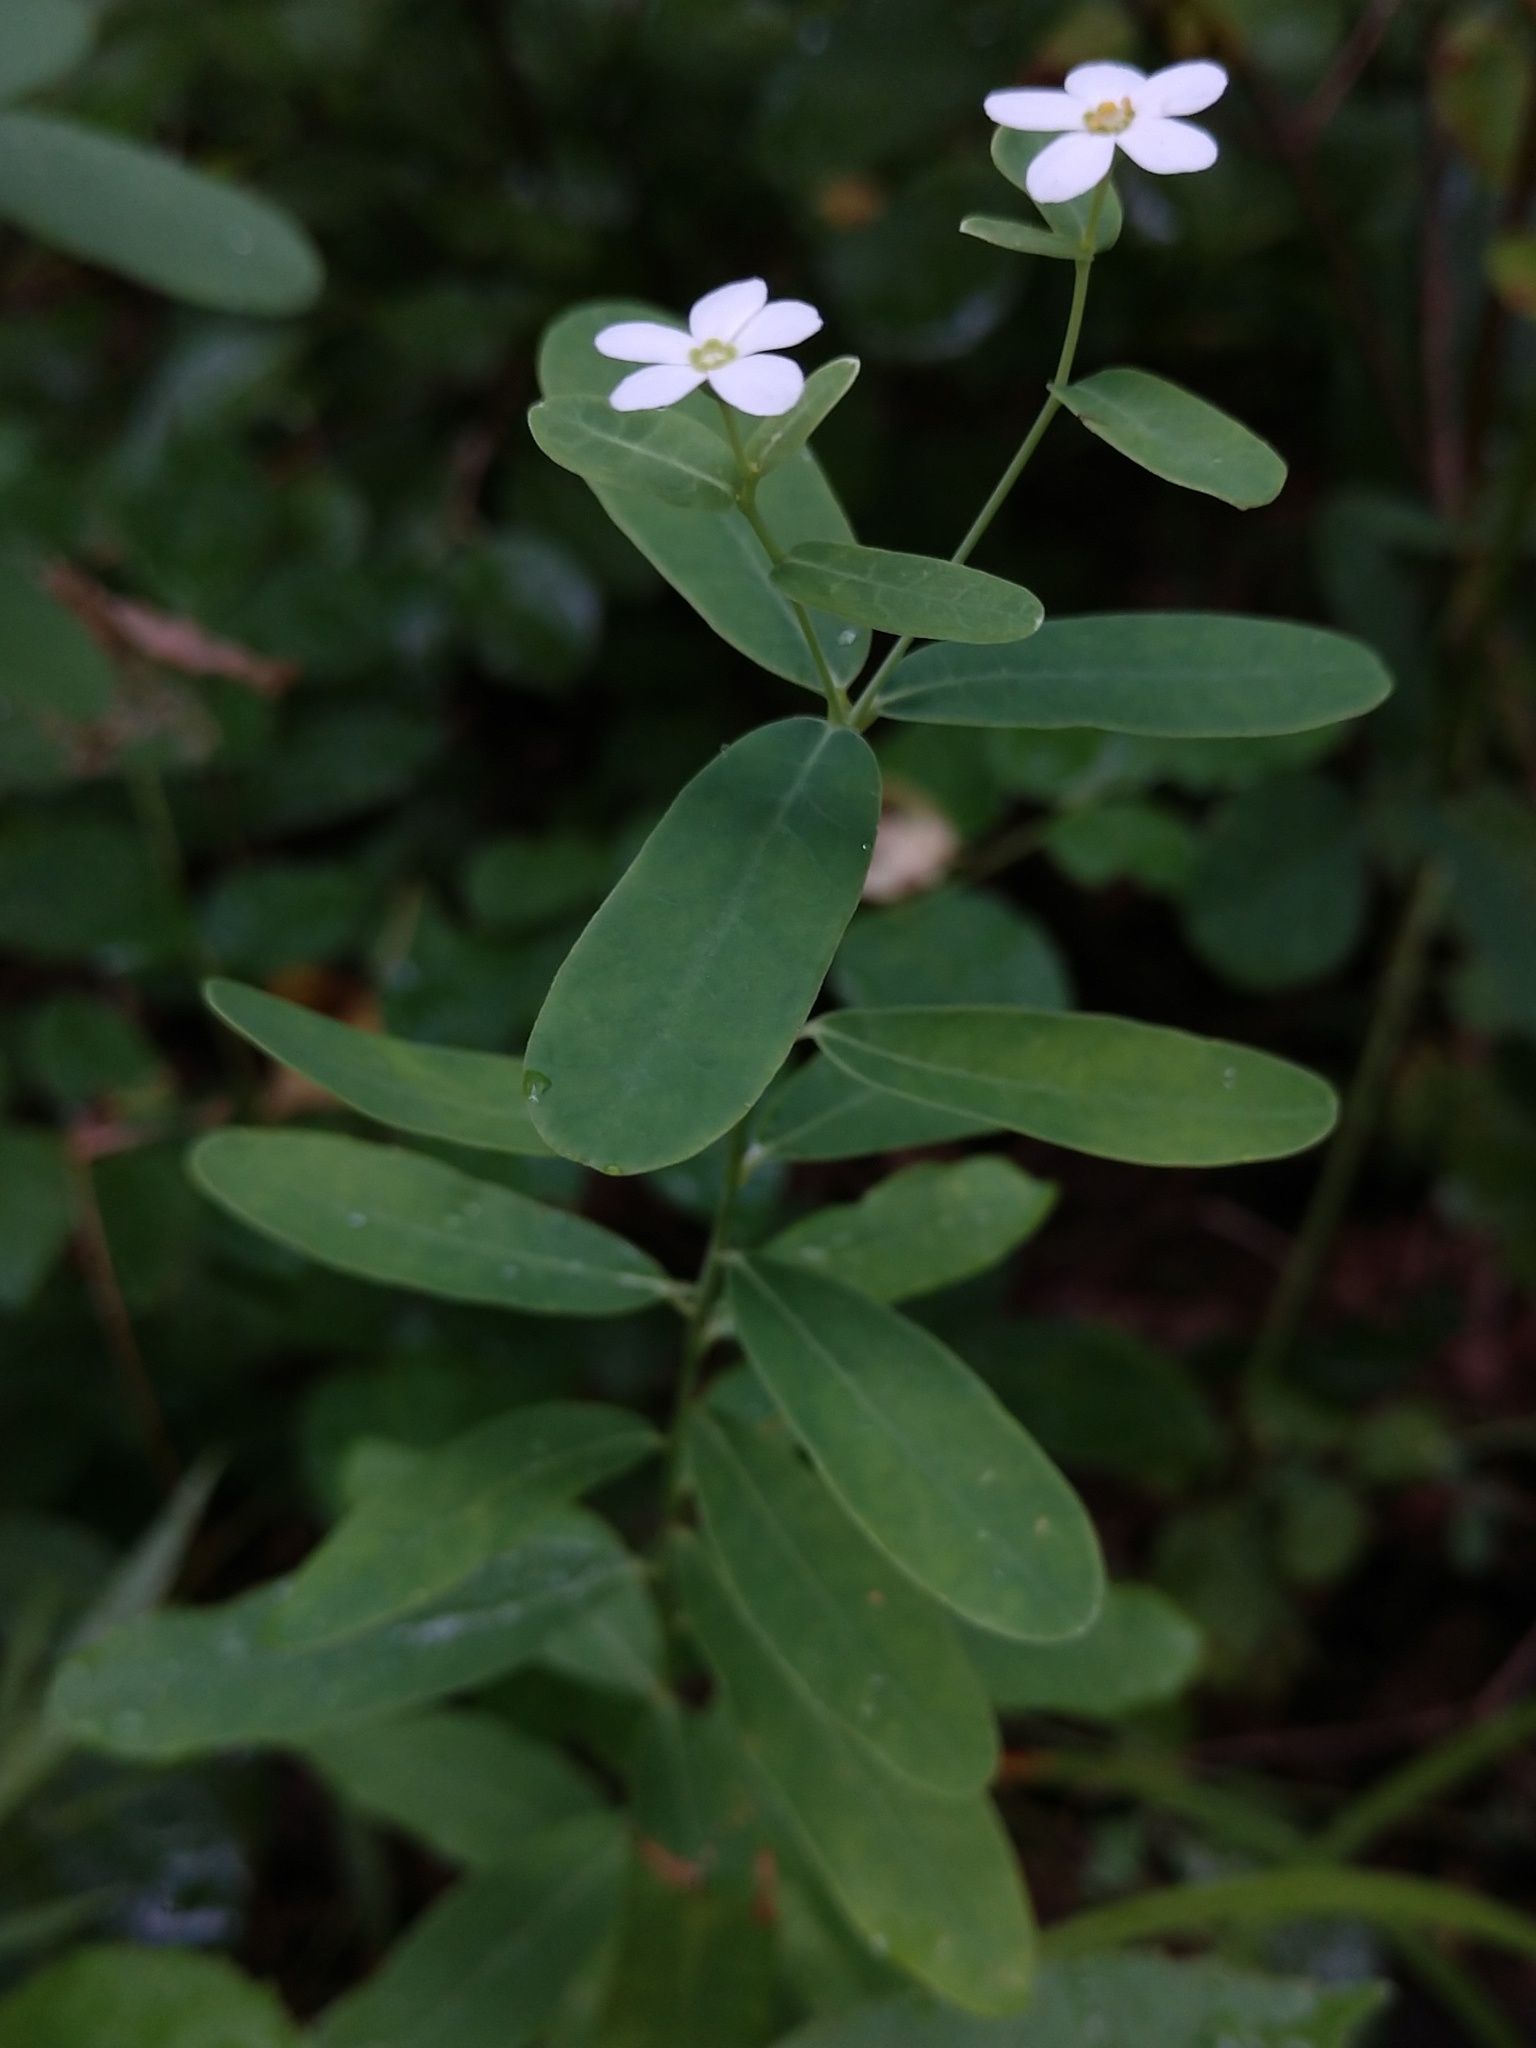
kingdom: Plantae
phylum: Tracheophyta
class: Magnoliopsida
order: Malpighiales
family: Euphorbiaceae
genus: Euphorbia
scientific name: Euphorbia corollata
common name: Flowering spurge
